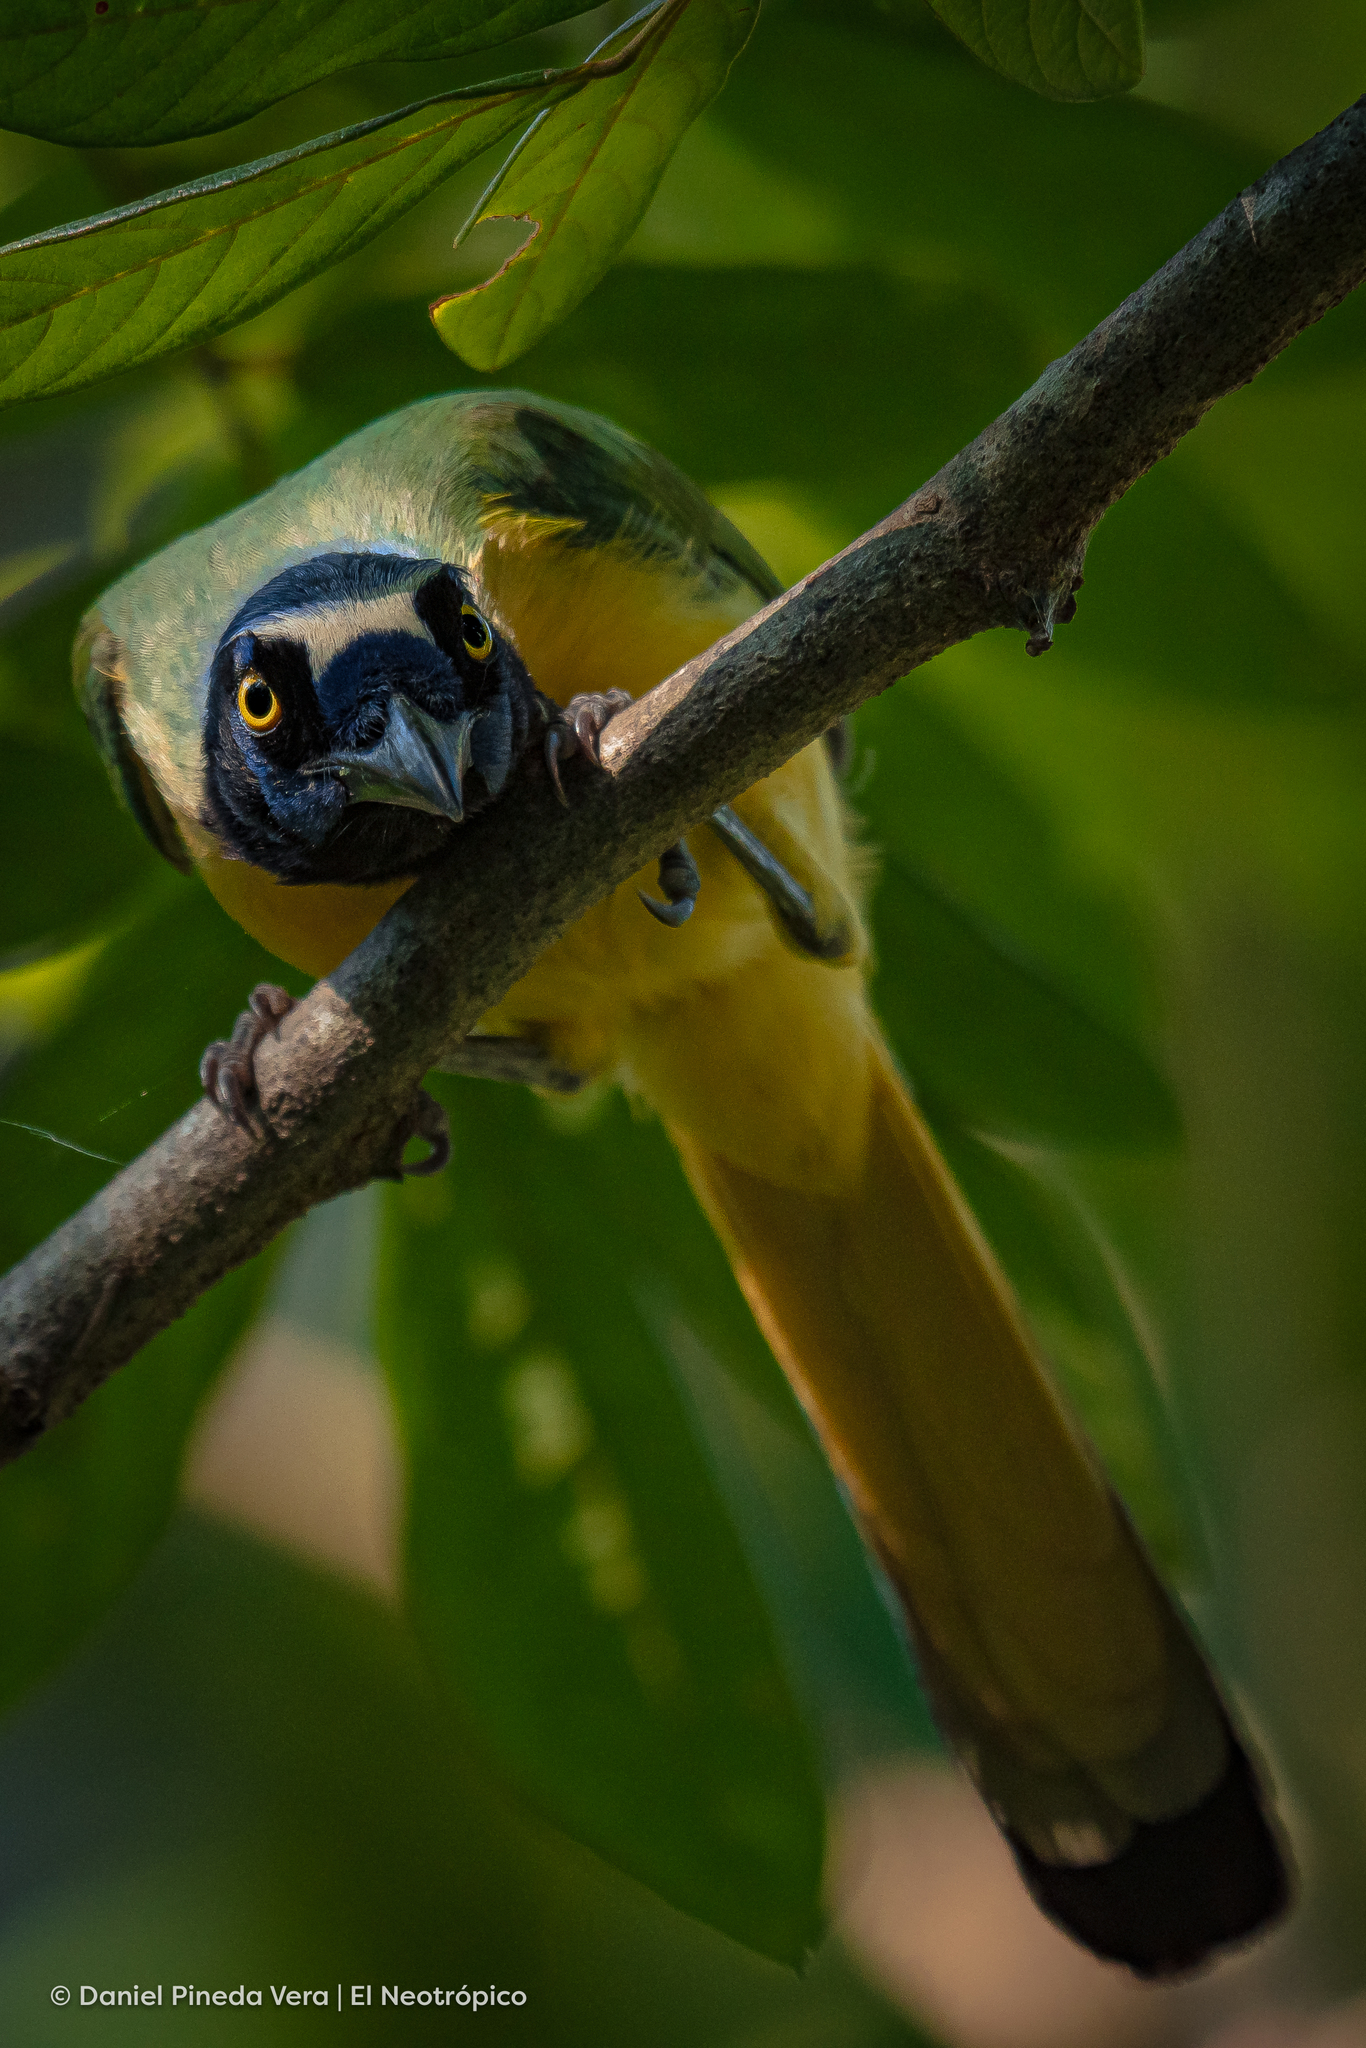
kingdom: Animalia
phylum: Chordata
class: Aves
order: Passeriformes
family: Corvidae
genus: Cyanocorax
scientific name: Cyanocorax yncas
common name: Green jay
